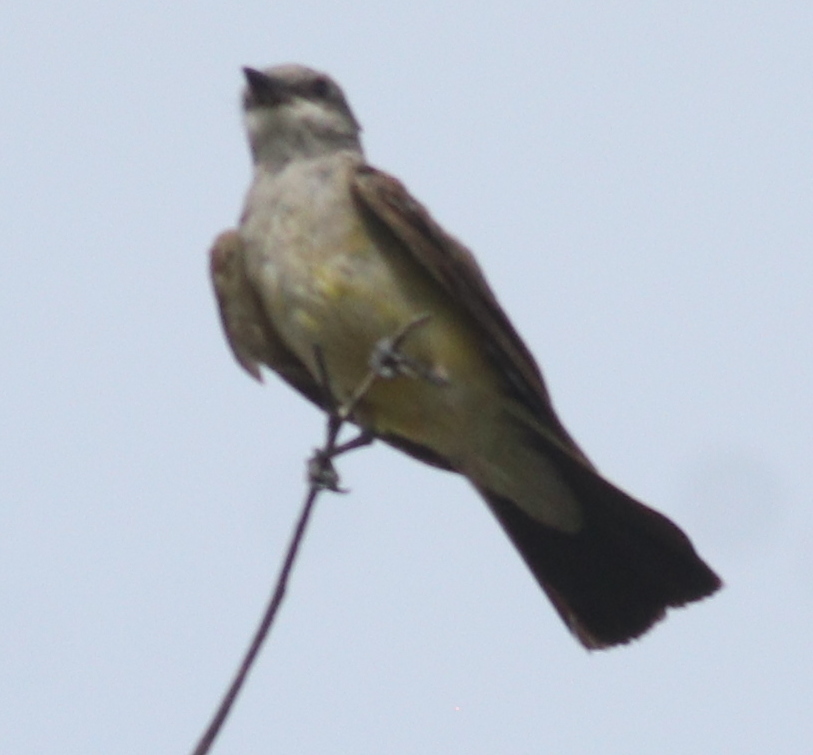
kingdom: Animalia
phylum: Chordata
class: Aves
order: Passeriformes
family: Tyrannidae
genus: Tyrannus
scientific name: Tyrannus vociferans
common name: Cassin's kingbird
